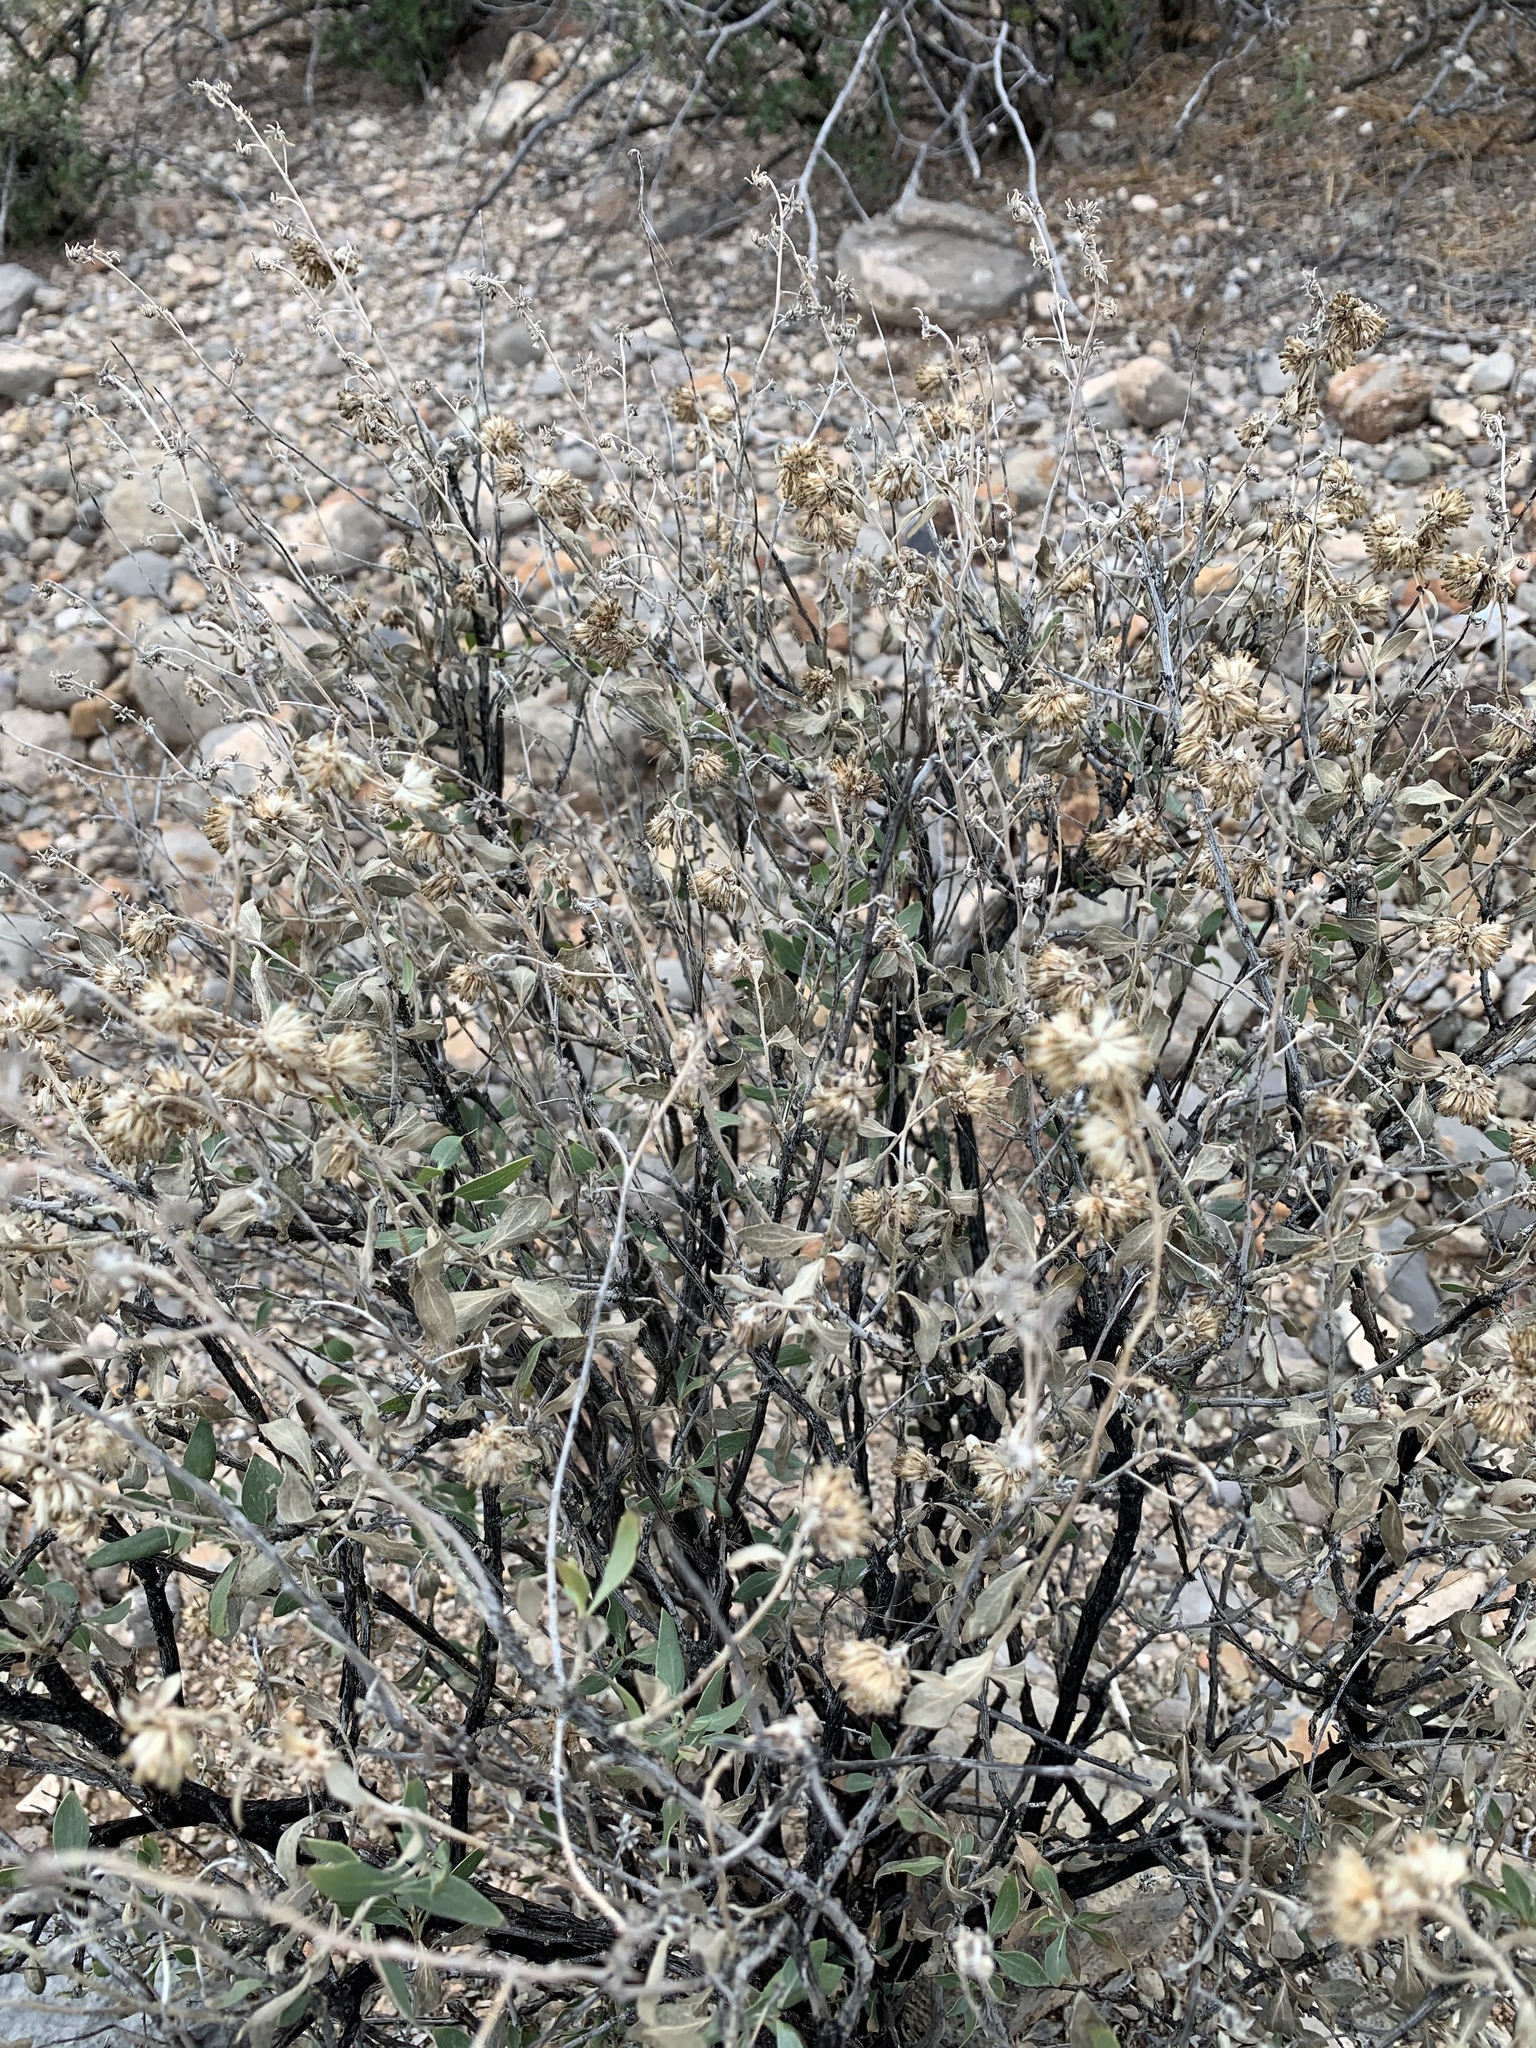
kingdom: Plantae
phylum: Tracheophyta
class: Magnoliopsida
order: Asterales
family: Asteraceae
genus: Flourensia
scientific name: Flourensia cernua
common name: Varnishbush
